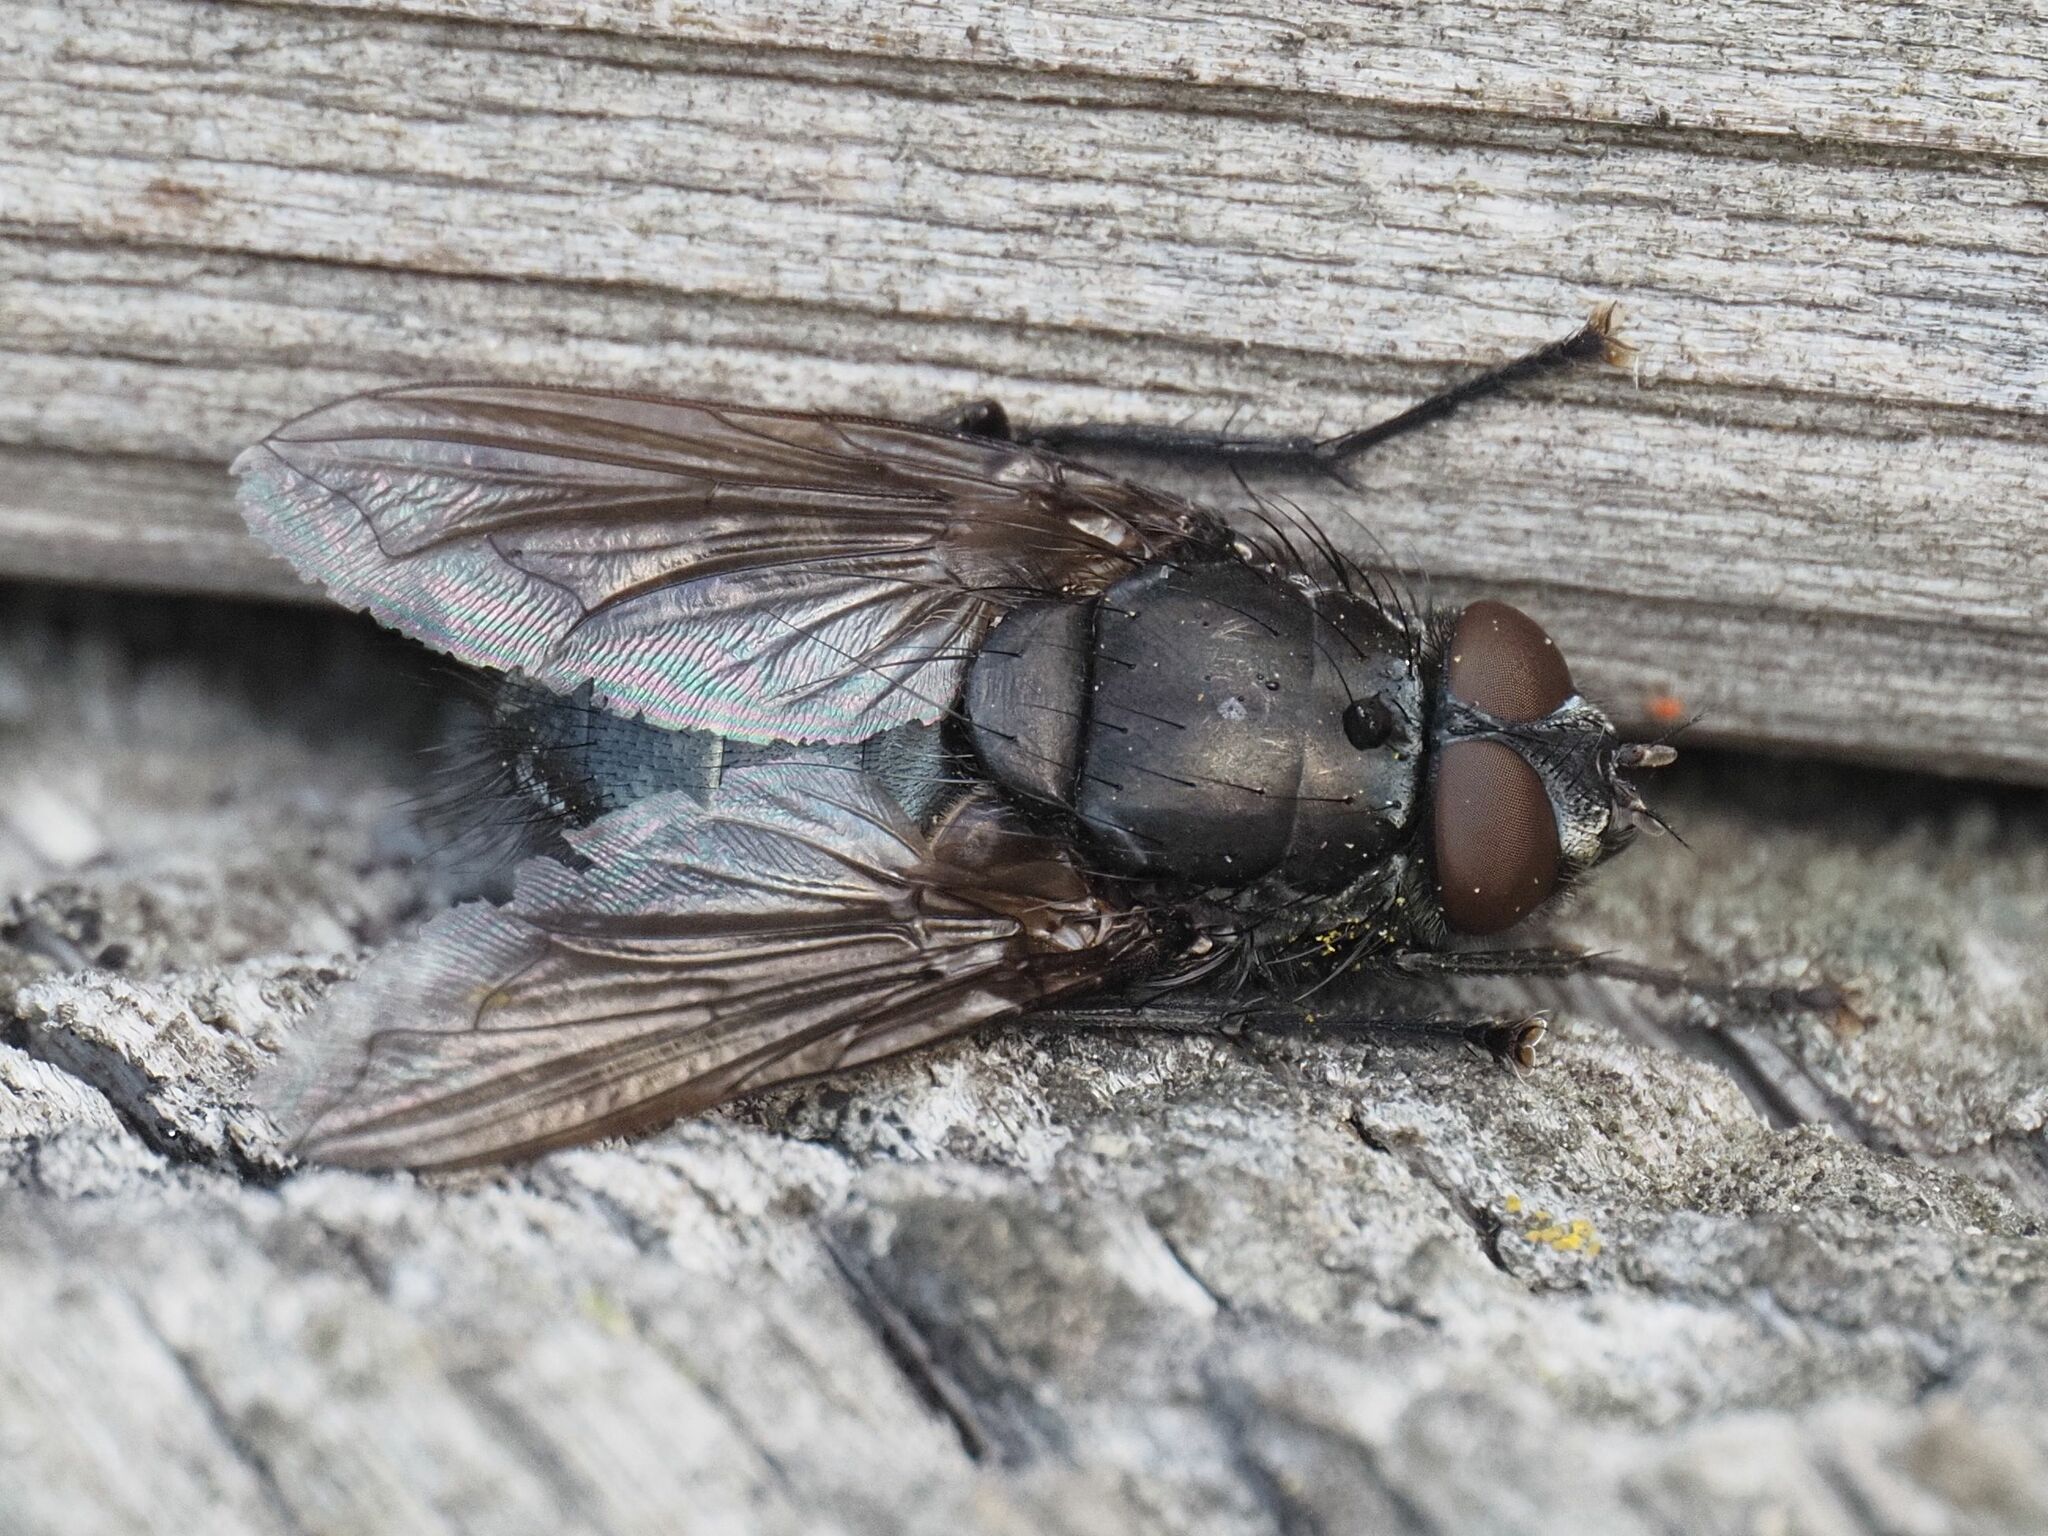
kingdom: Animalia
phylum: Arthropoda
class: Insecta
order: Diptera
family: Polleniidae
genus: Pollenia
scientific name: Pollenia vagabunda
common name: Vagabund cluster fly
